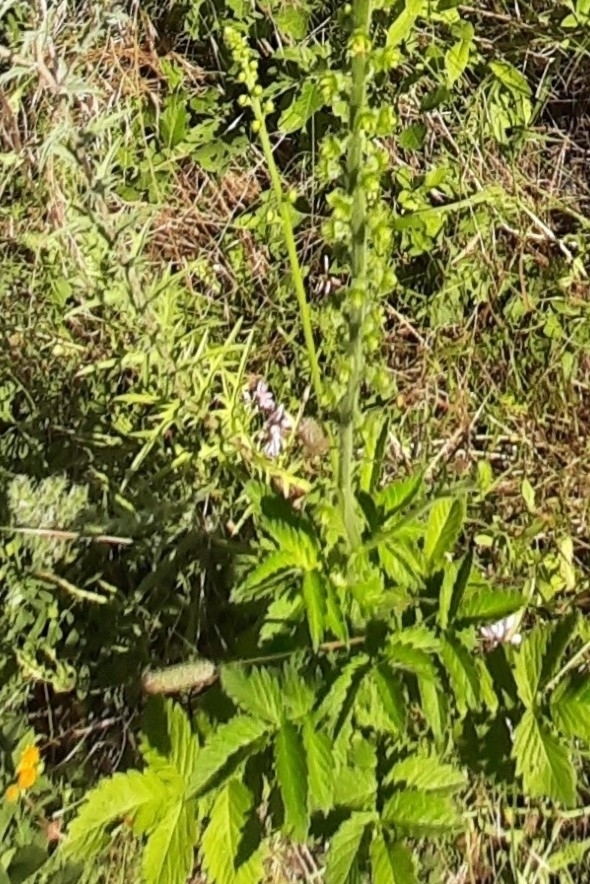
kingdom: Plantae
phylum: Tracheophyta
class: Magnoliopsida
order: Rosales
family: Rosaceae
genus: Agrimonia
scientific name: Agrimonia eupatoria
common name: Agrimony
